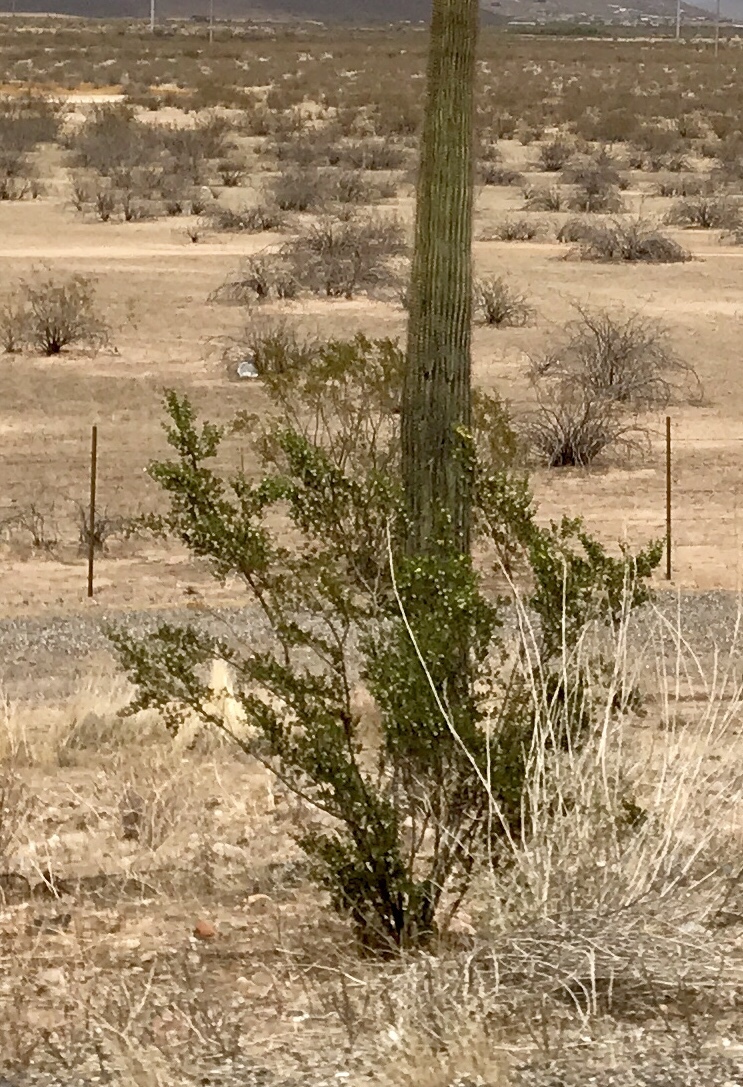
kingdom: Plantae
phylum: Tracheophyta
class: Magnoliopsida
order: Zygophyllales
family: Zygophyllaceae
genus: Larrea
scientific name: Larrea tridentata
